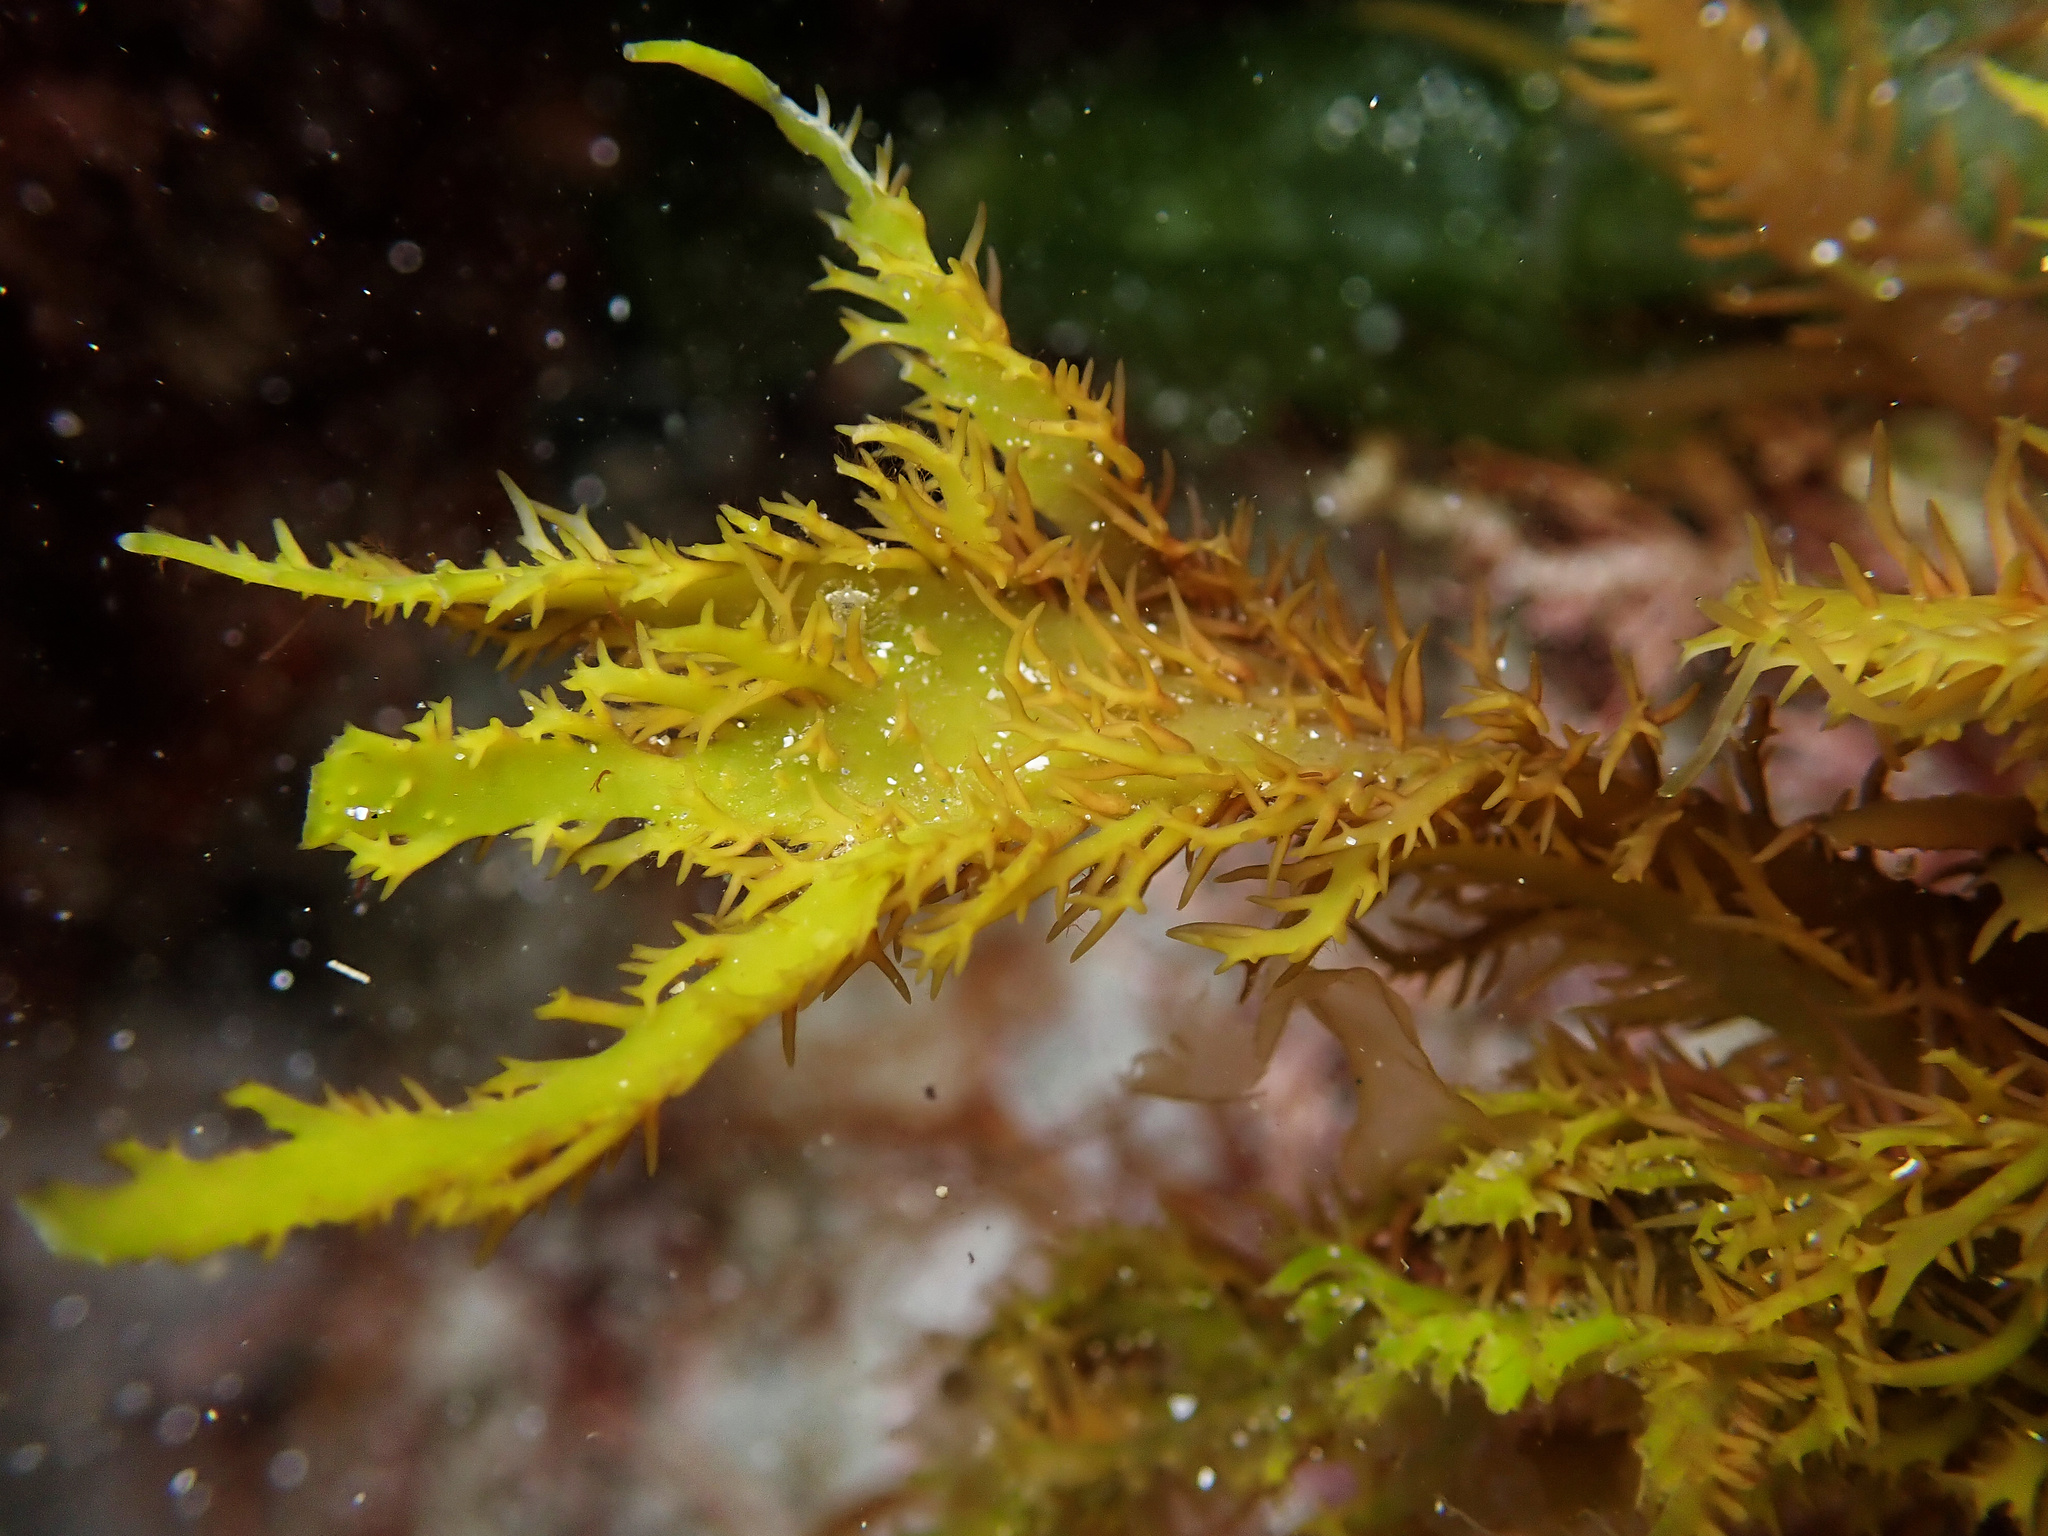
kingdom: Plantae
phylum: Rhodophyta
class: Florideophyceae
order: Gigartinales
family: Cystocloniaceae
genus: Calliblepharis
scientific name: Calliblepharis jubata
